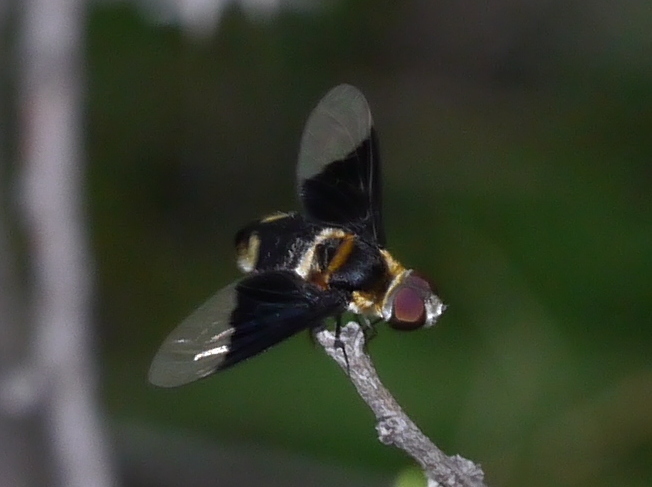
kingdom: Animalia
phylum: Arthropoda
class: Insecta
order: Diptera
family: Bombyliidae
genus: Ins
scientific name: Ins celeris
